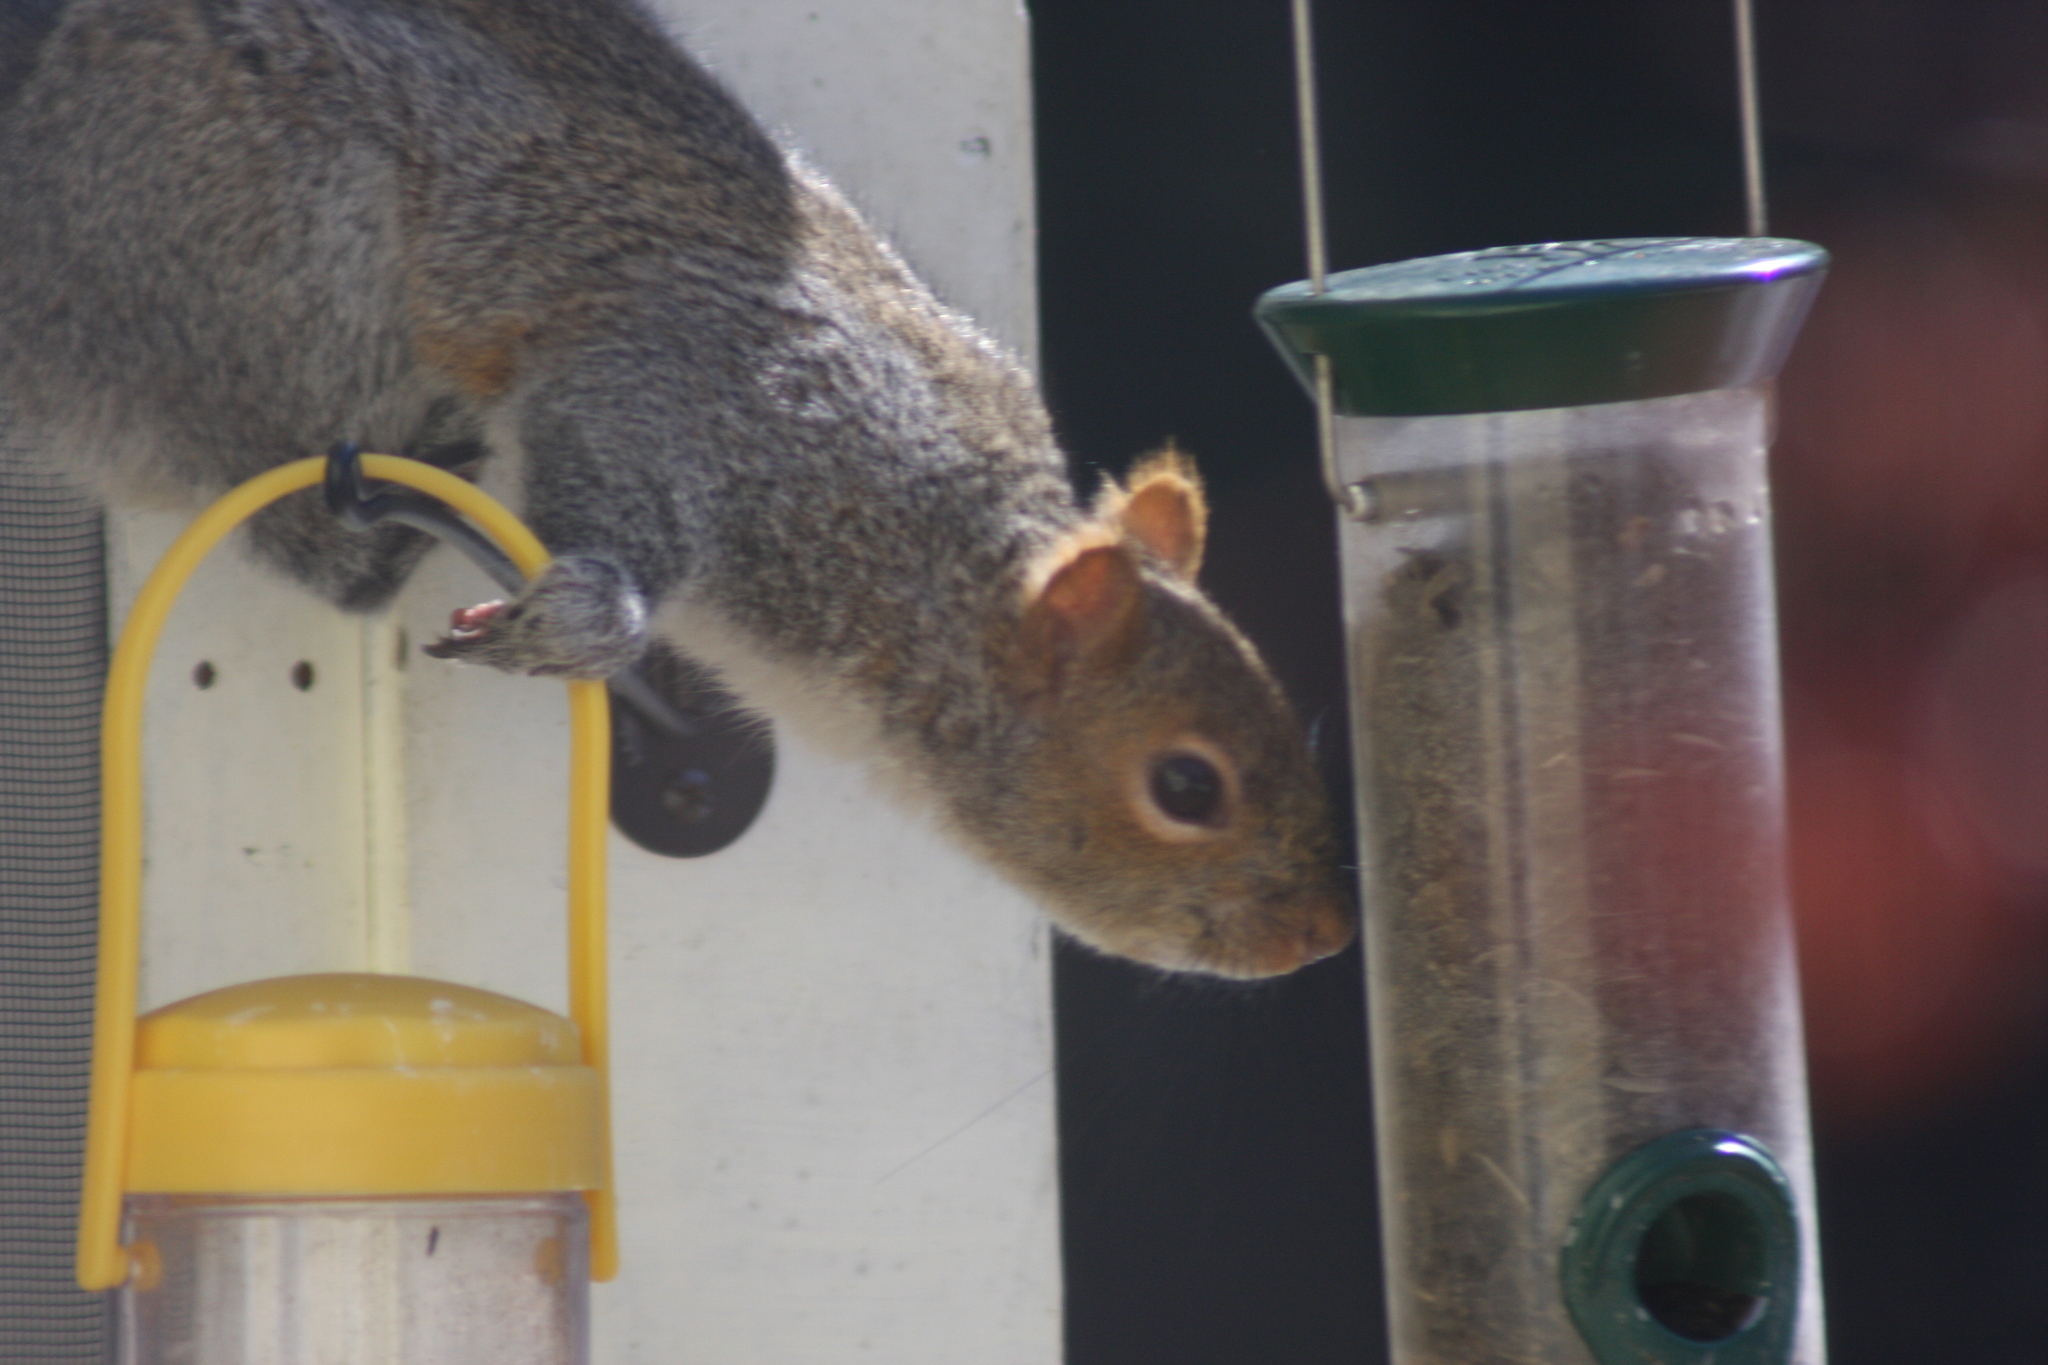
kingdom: Animalia
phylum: Chordata
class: Mammalia
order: Rodentia
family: Sciuridae
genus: Sciurus
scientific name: Sciurus carolinensis
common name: Eastern gray squirrel
